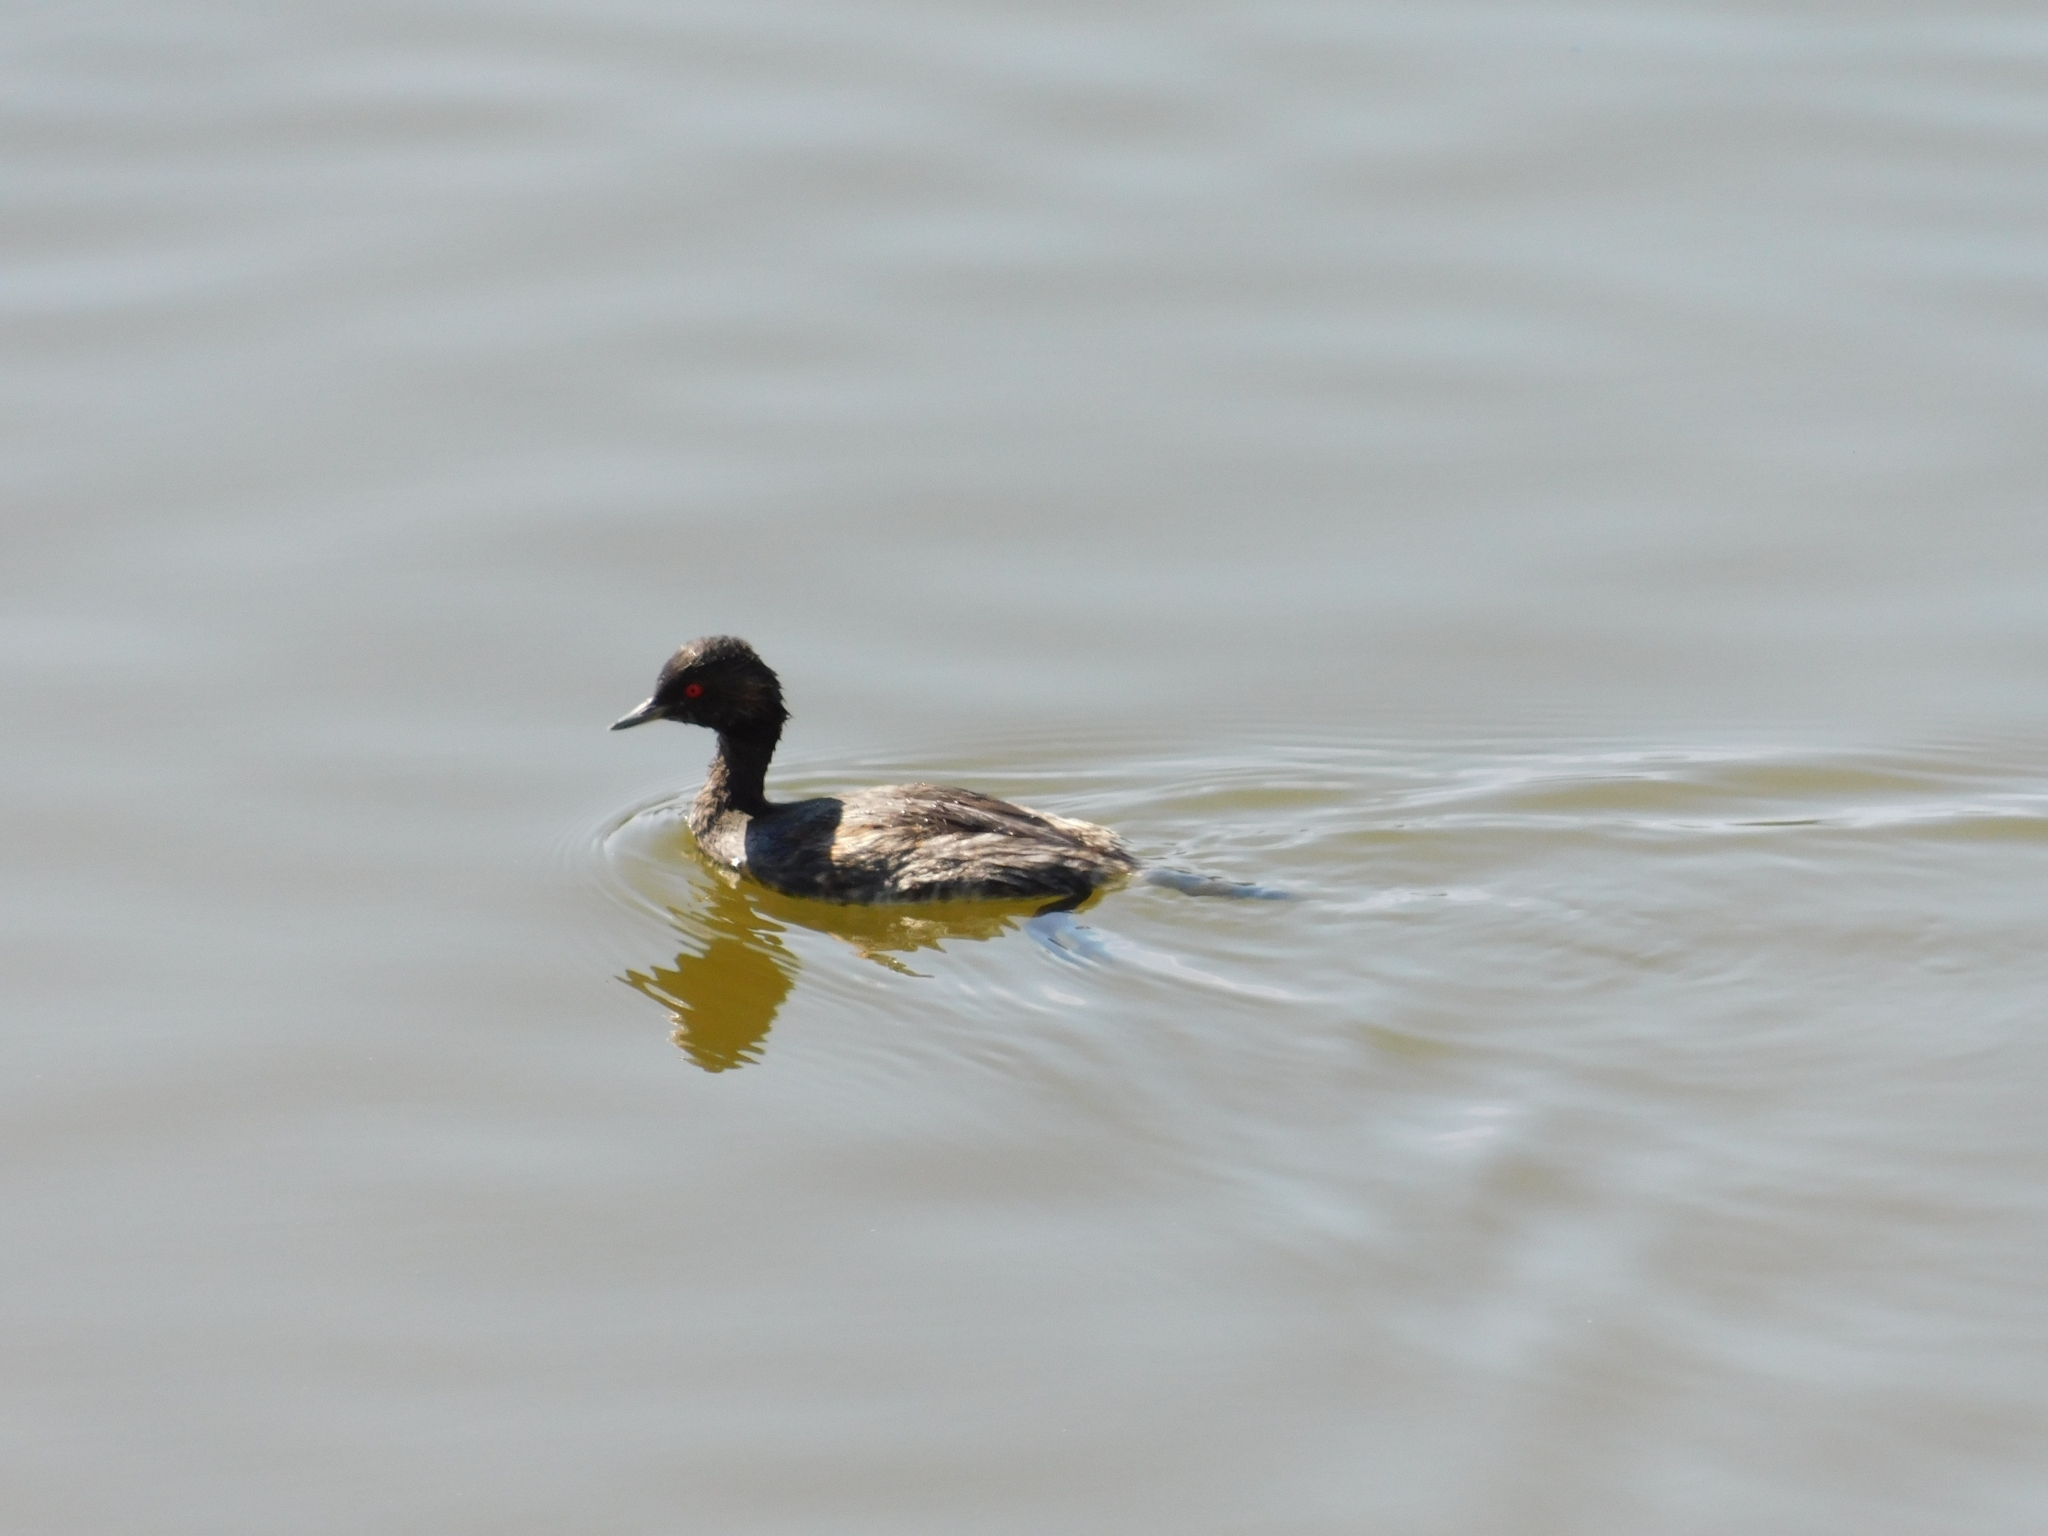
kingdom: Animalia
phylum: Chordata
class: Aves
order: Podicipediformes
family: Podicipedidae
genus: Podiceps
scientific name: Podiceps nigricollis
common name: Black-necked grebe
